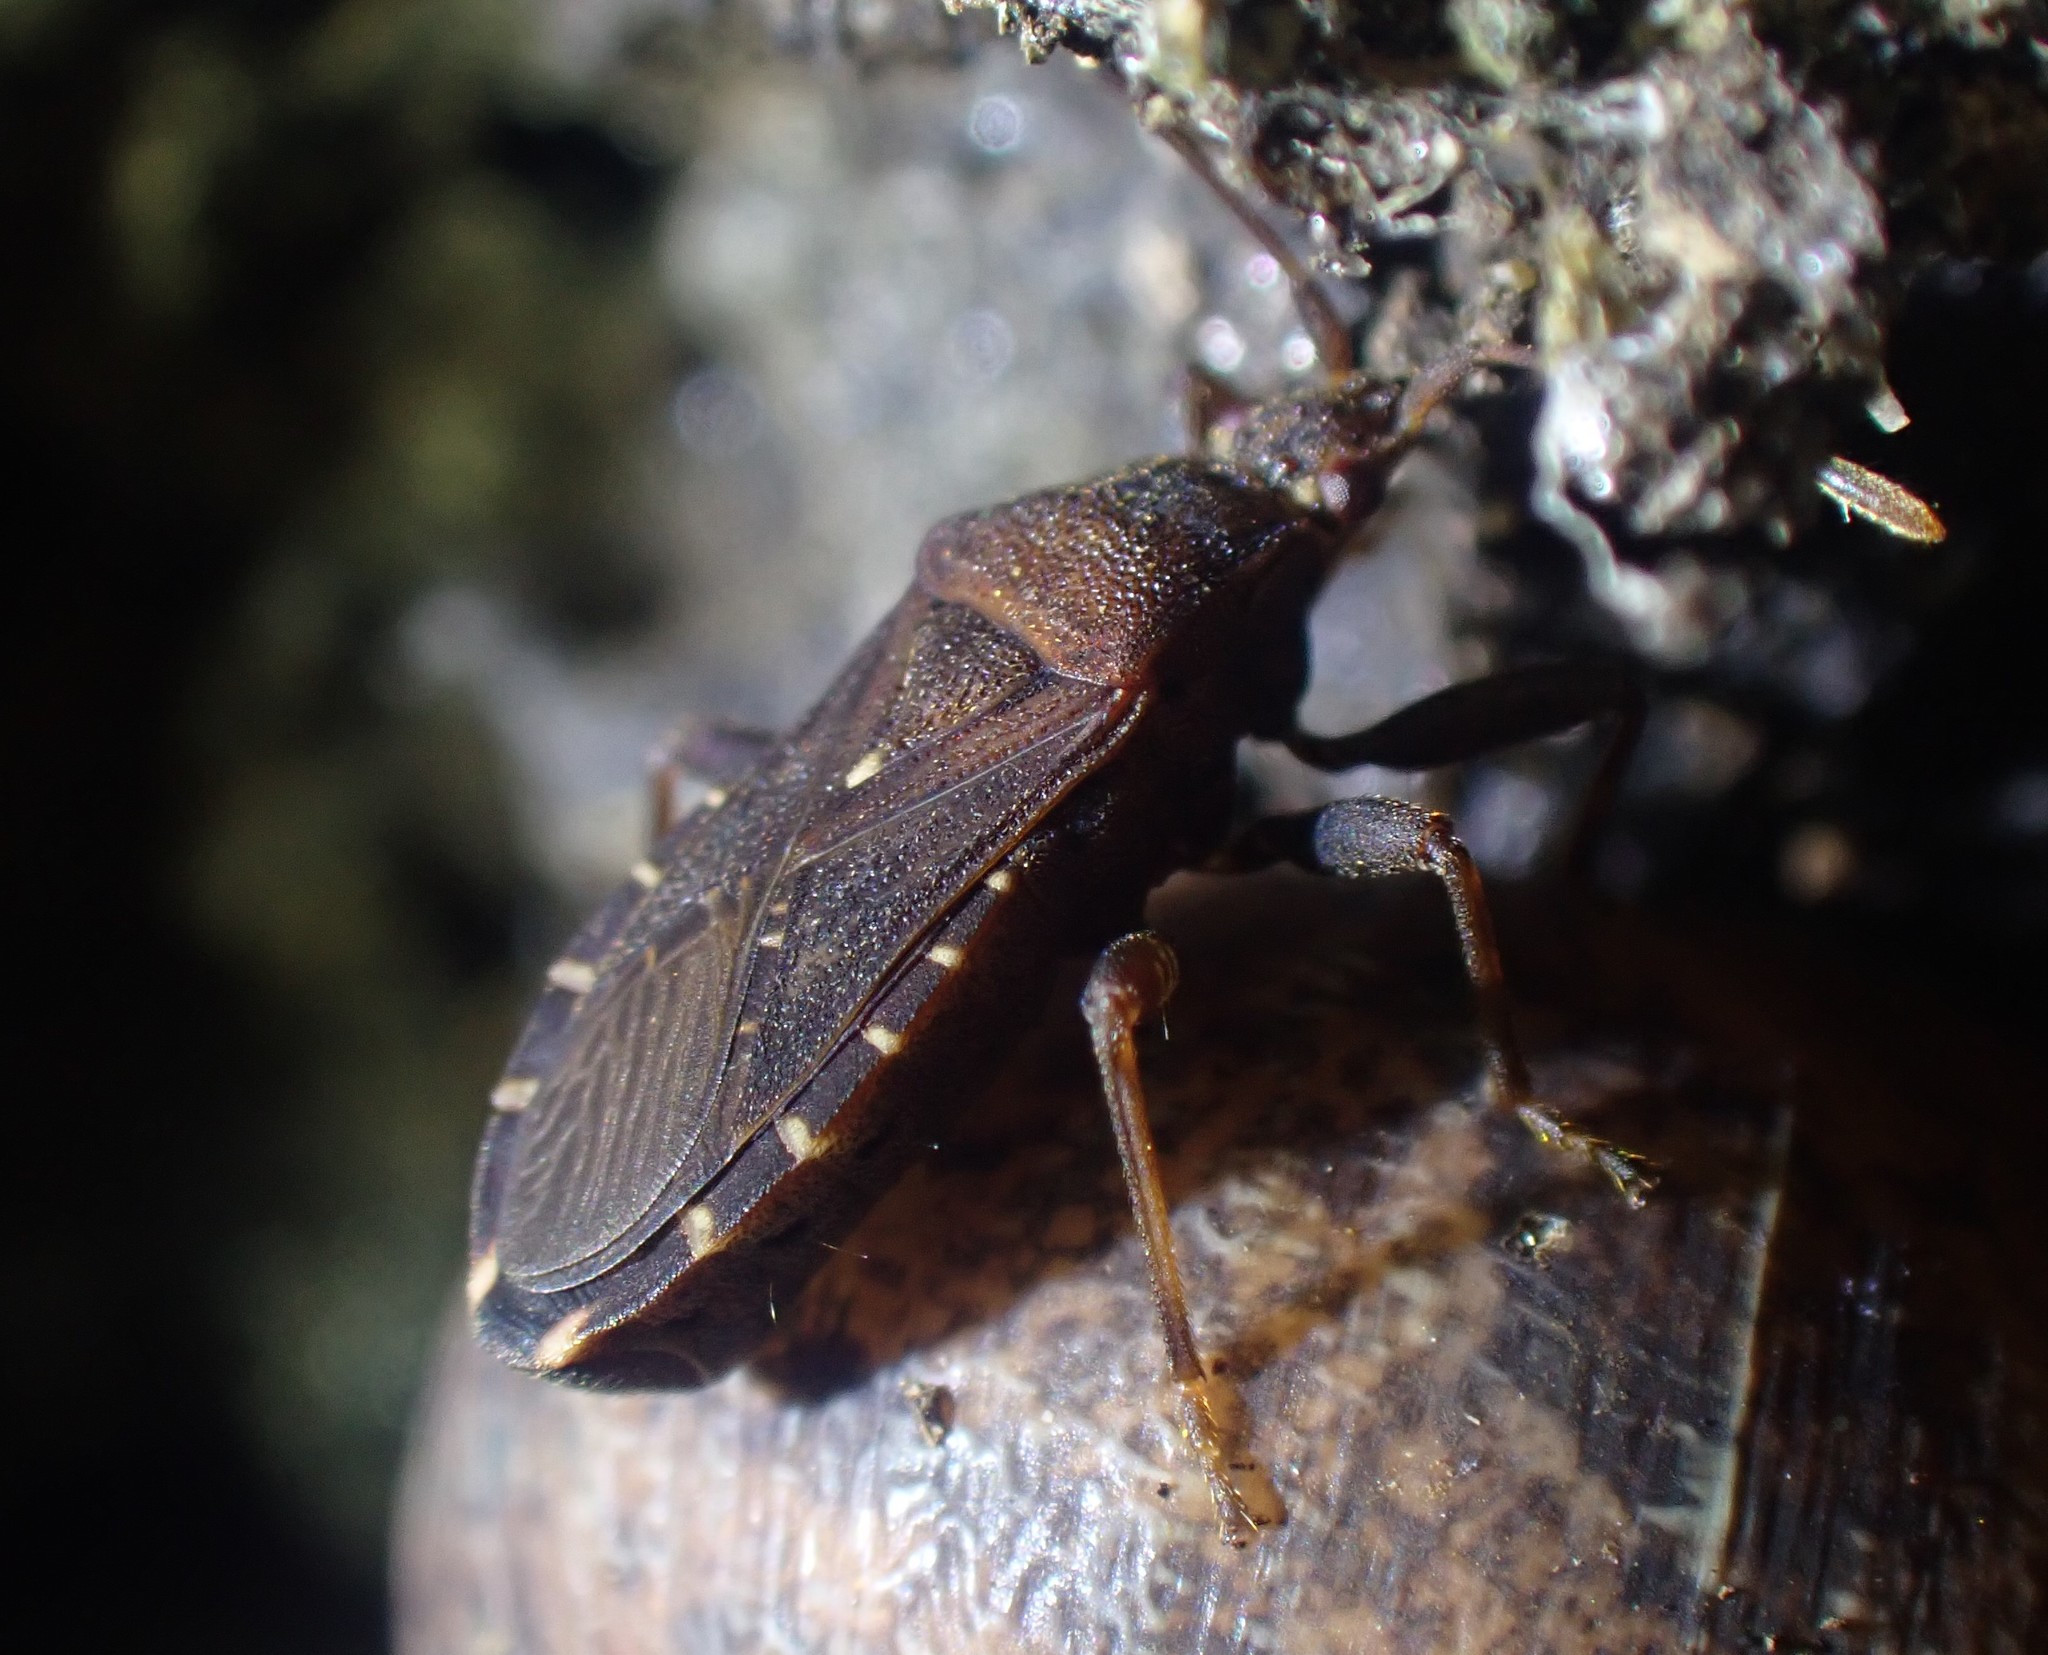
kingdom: Animalia
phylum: Arthropoda
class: Insecta
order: Hemiptera
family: Coreidae
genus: Acantholybas
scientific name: Acantholybas brunneus
